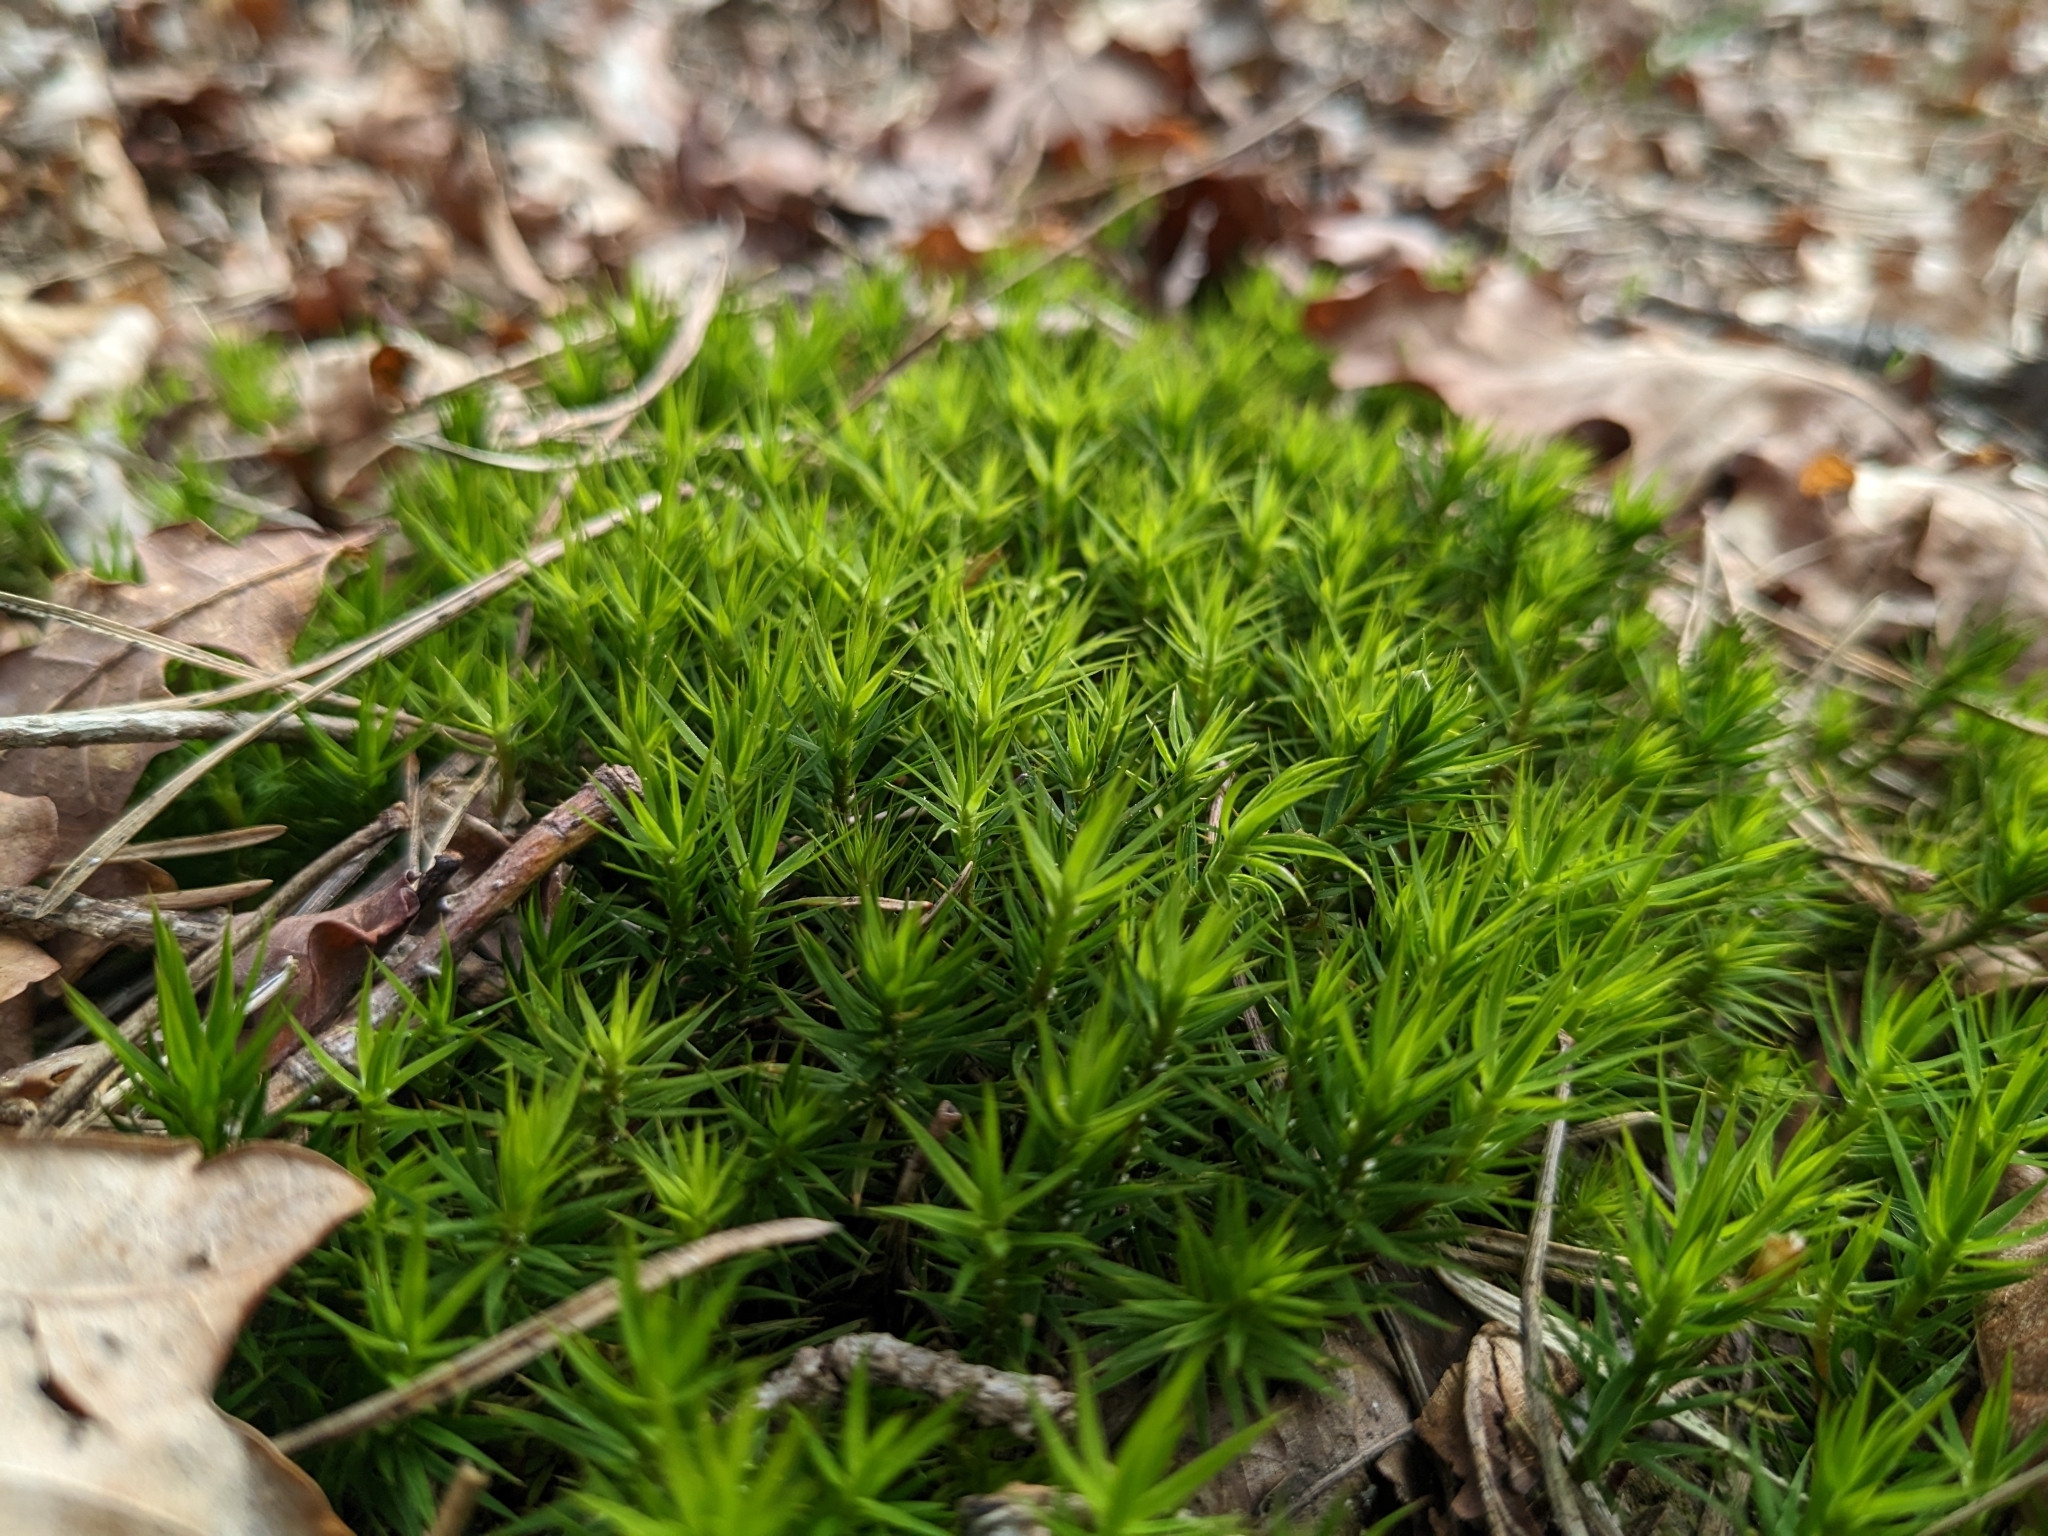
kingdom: Plantae
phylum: Bryophyta
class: Polytrichopsida
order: Polytrichales
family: Polytrichaceae
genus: Polytrichum
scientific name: Polytrichum formosum
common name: Bank haircap moss
